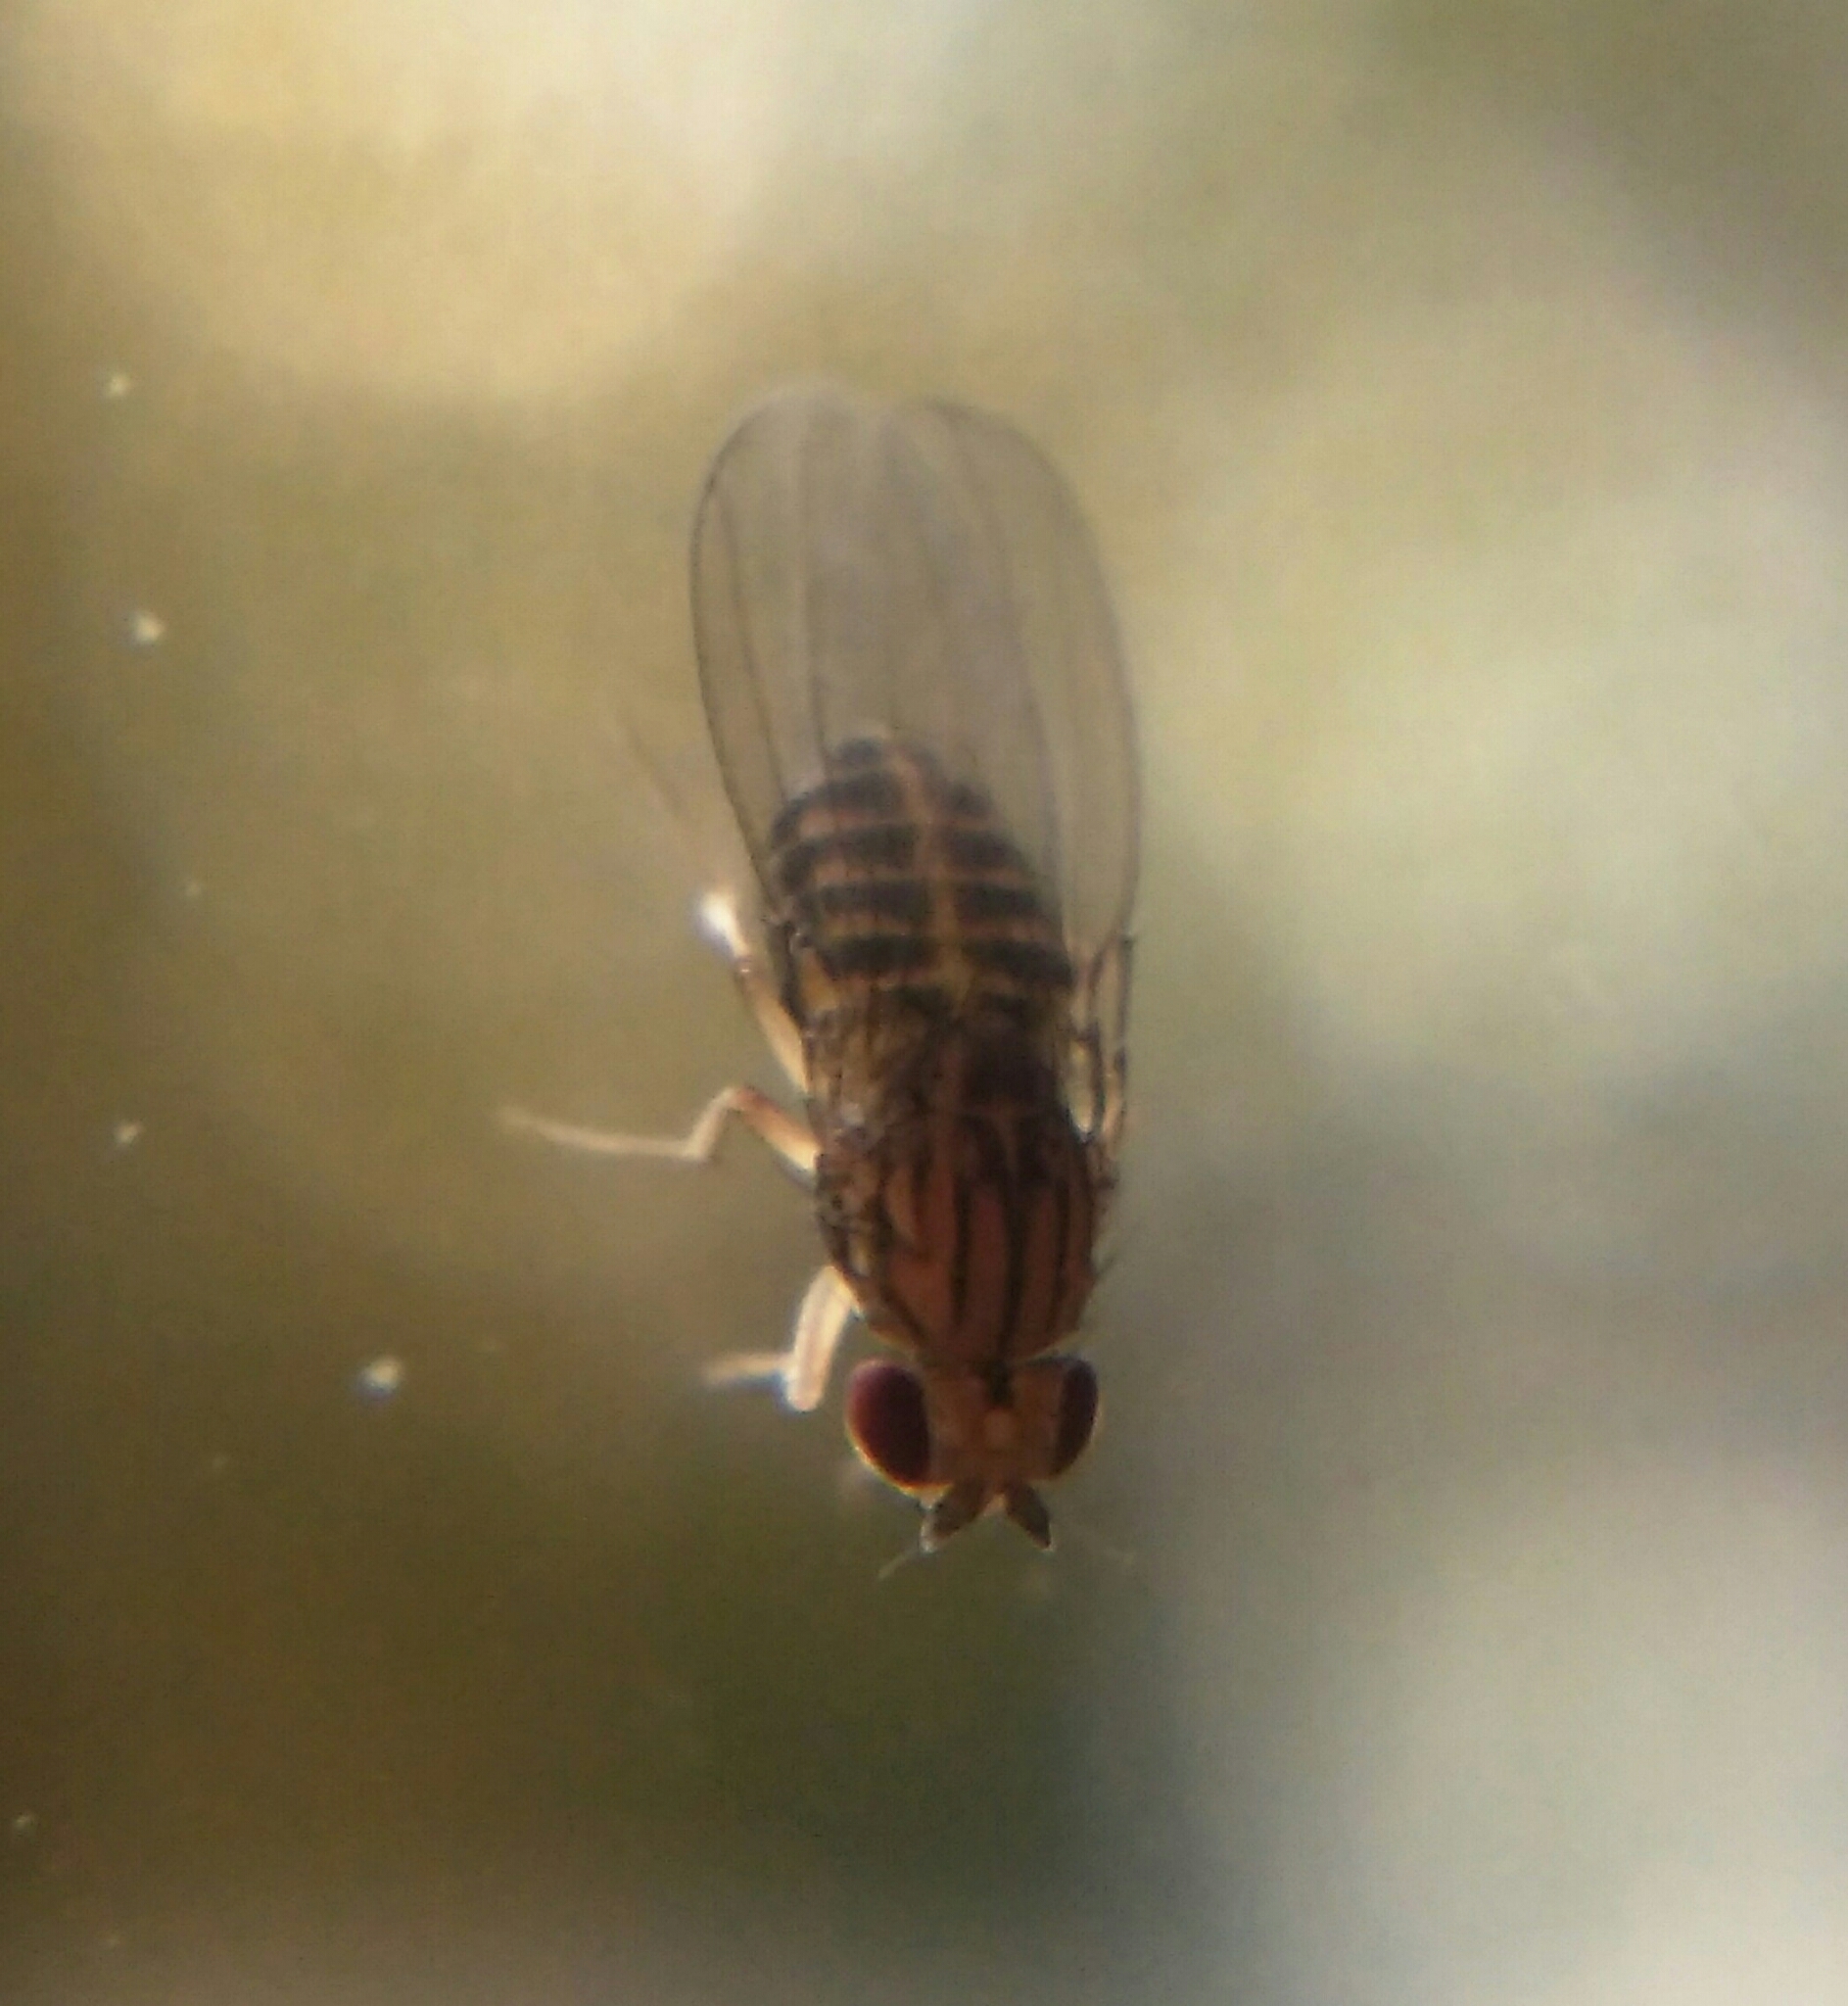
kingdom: Animalia
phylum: Arthropoda
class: Insecta
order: Diptera
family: Drosophilidae
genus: Drosophila
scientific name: Drosophila busckii
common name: Pomace fly
